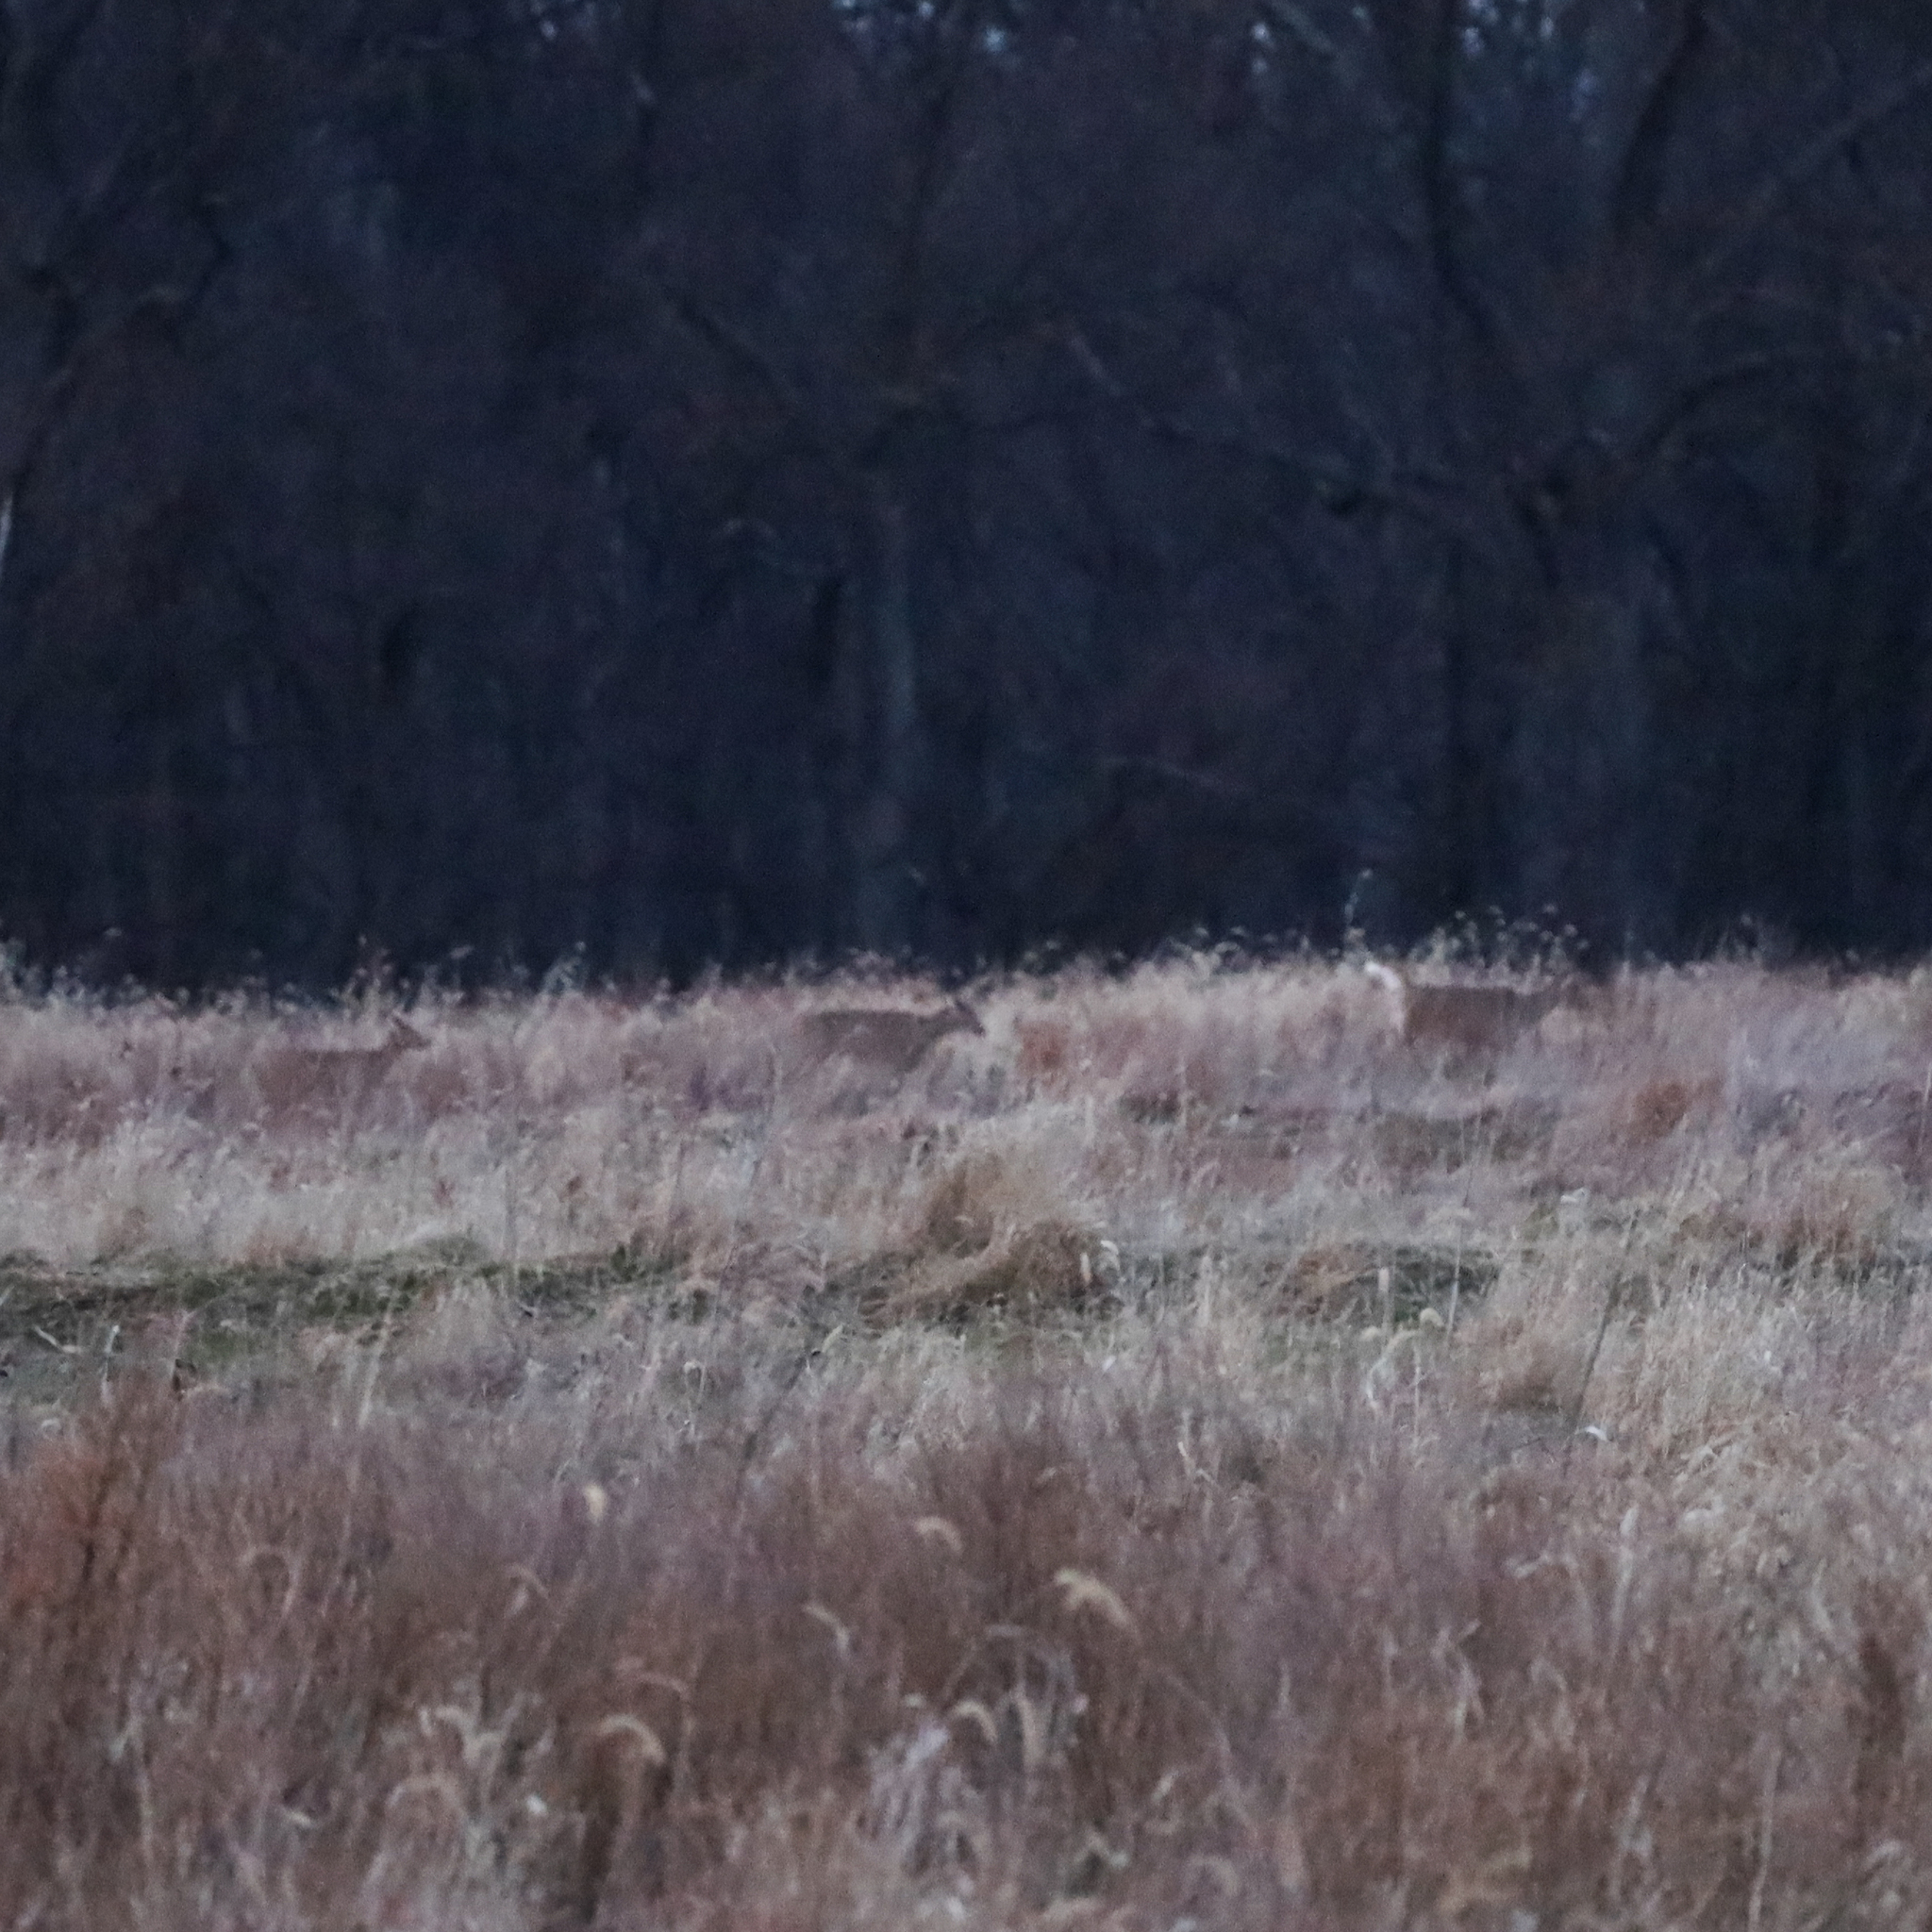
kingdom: Animalia
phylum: Chordata
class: Mammalia
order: Artiodactyla
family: Cervidae
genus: Odocoileus
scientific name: Odocoileus virginianus
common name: White-tailed deer
